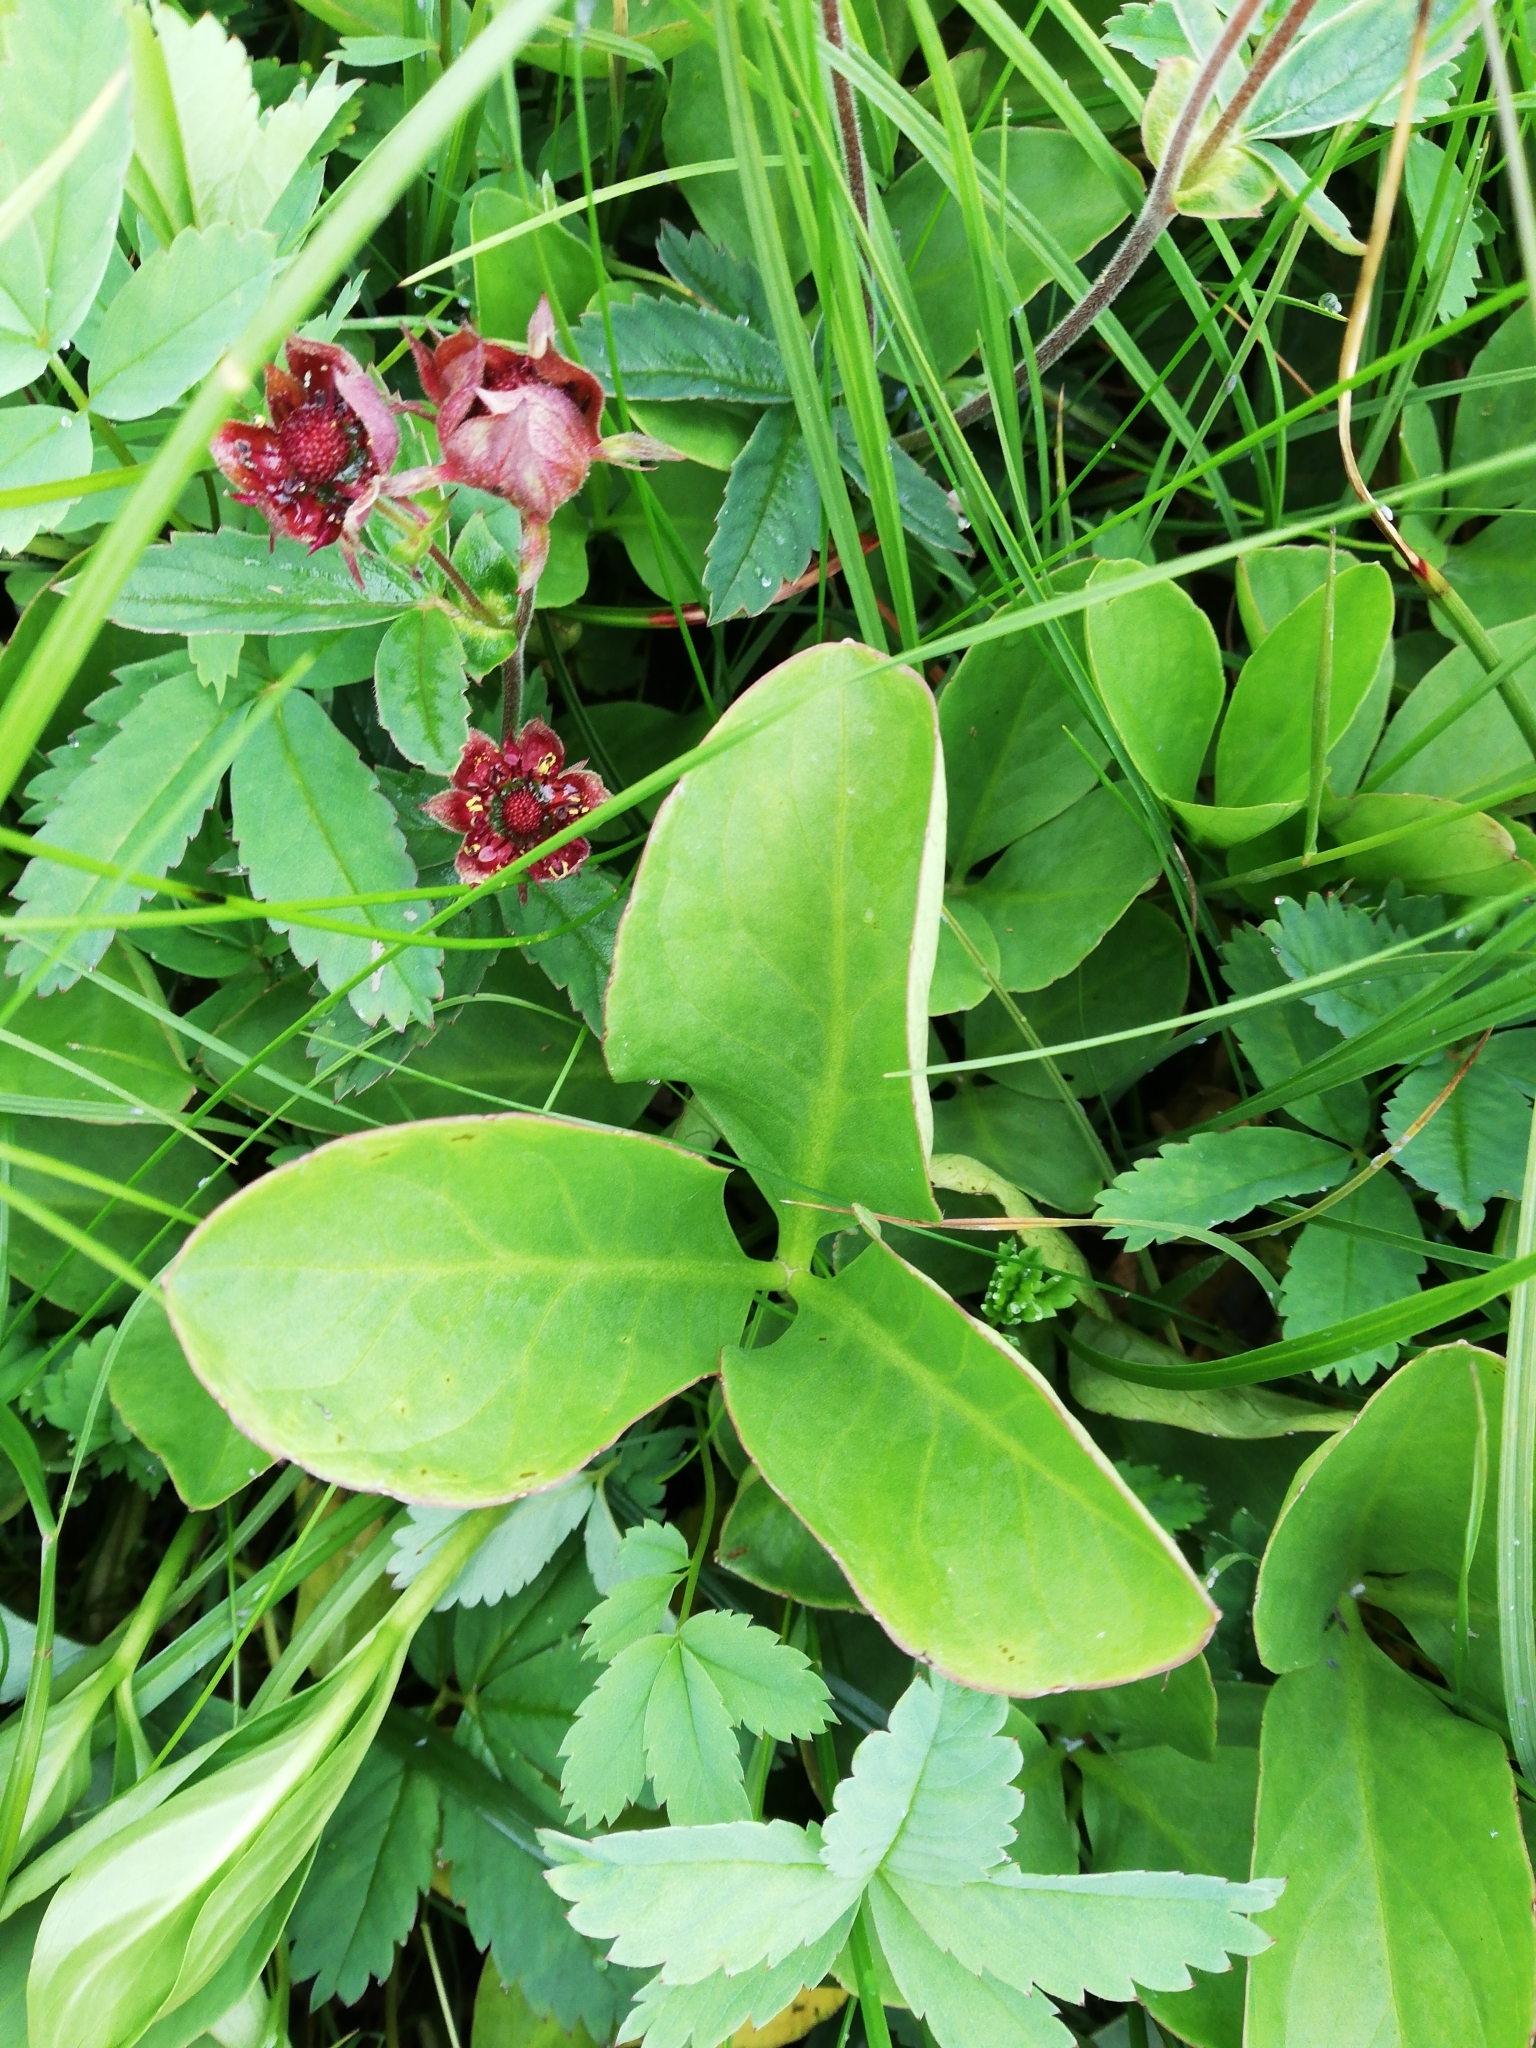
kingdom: Plantae
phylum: Tracheophyta
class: Magnoliopsida
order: Asterales
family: Menyanthaceae
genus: Menyanthes
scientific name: Menyanthes trifoliata
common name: Bogbean
